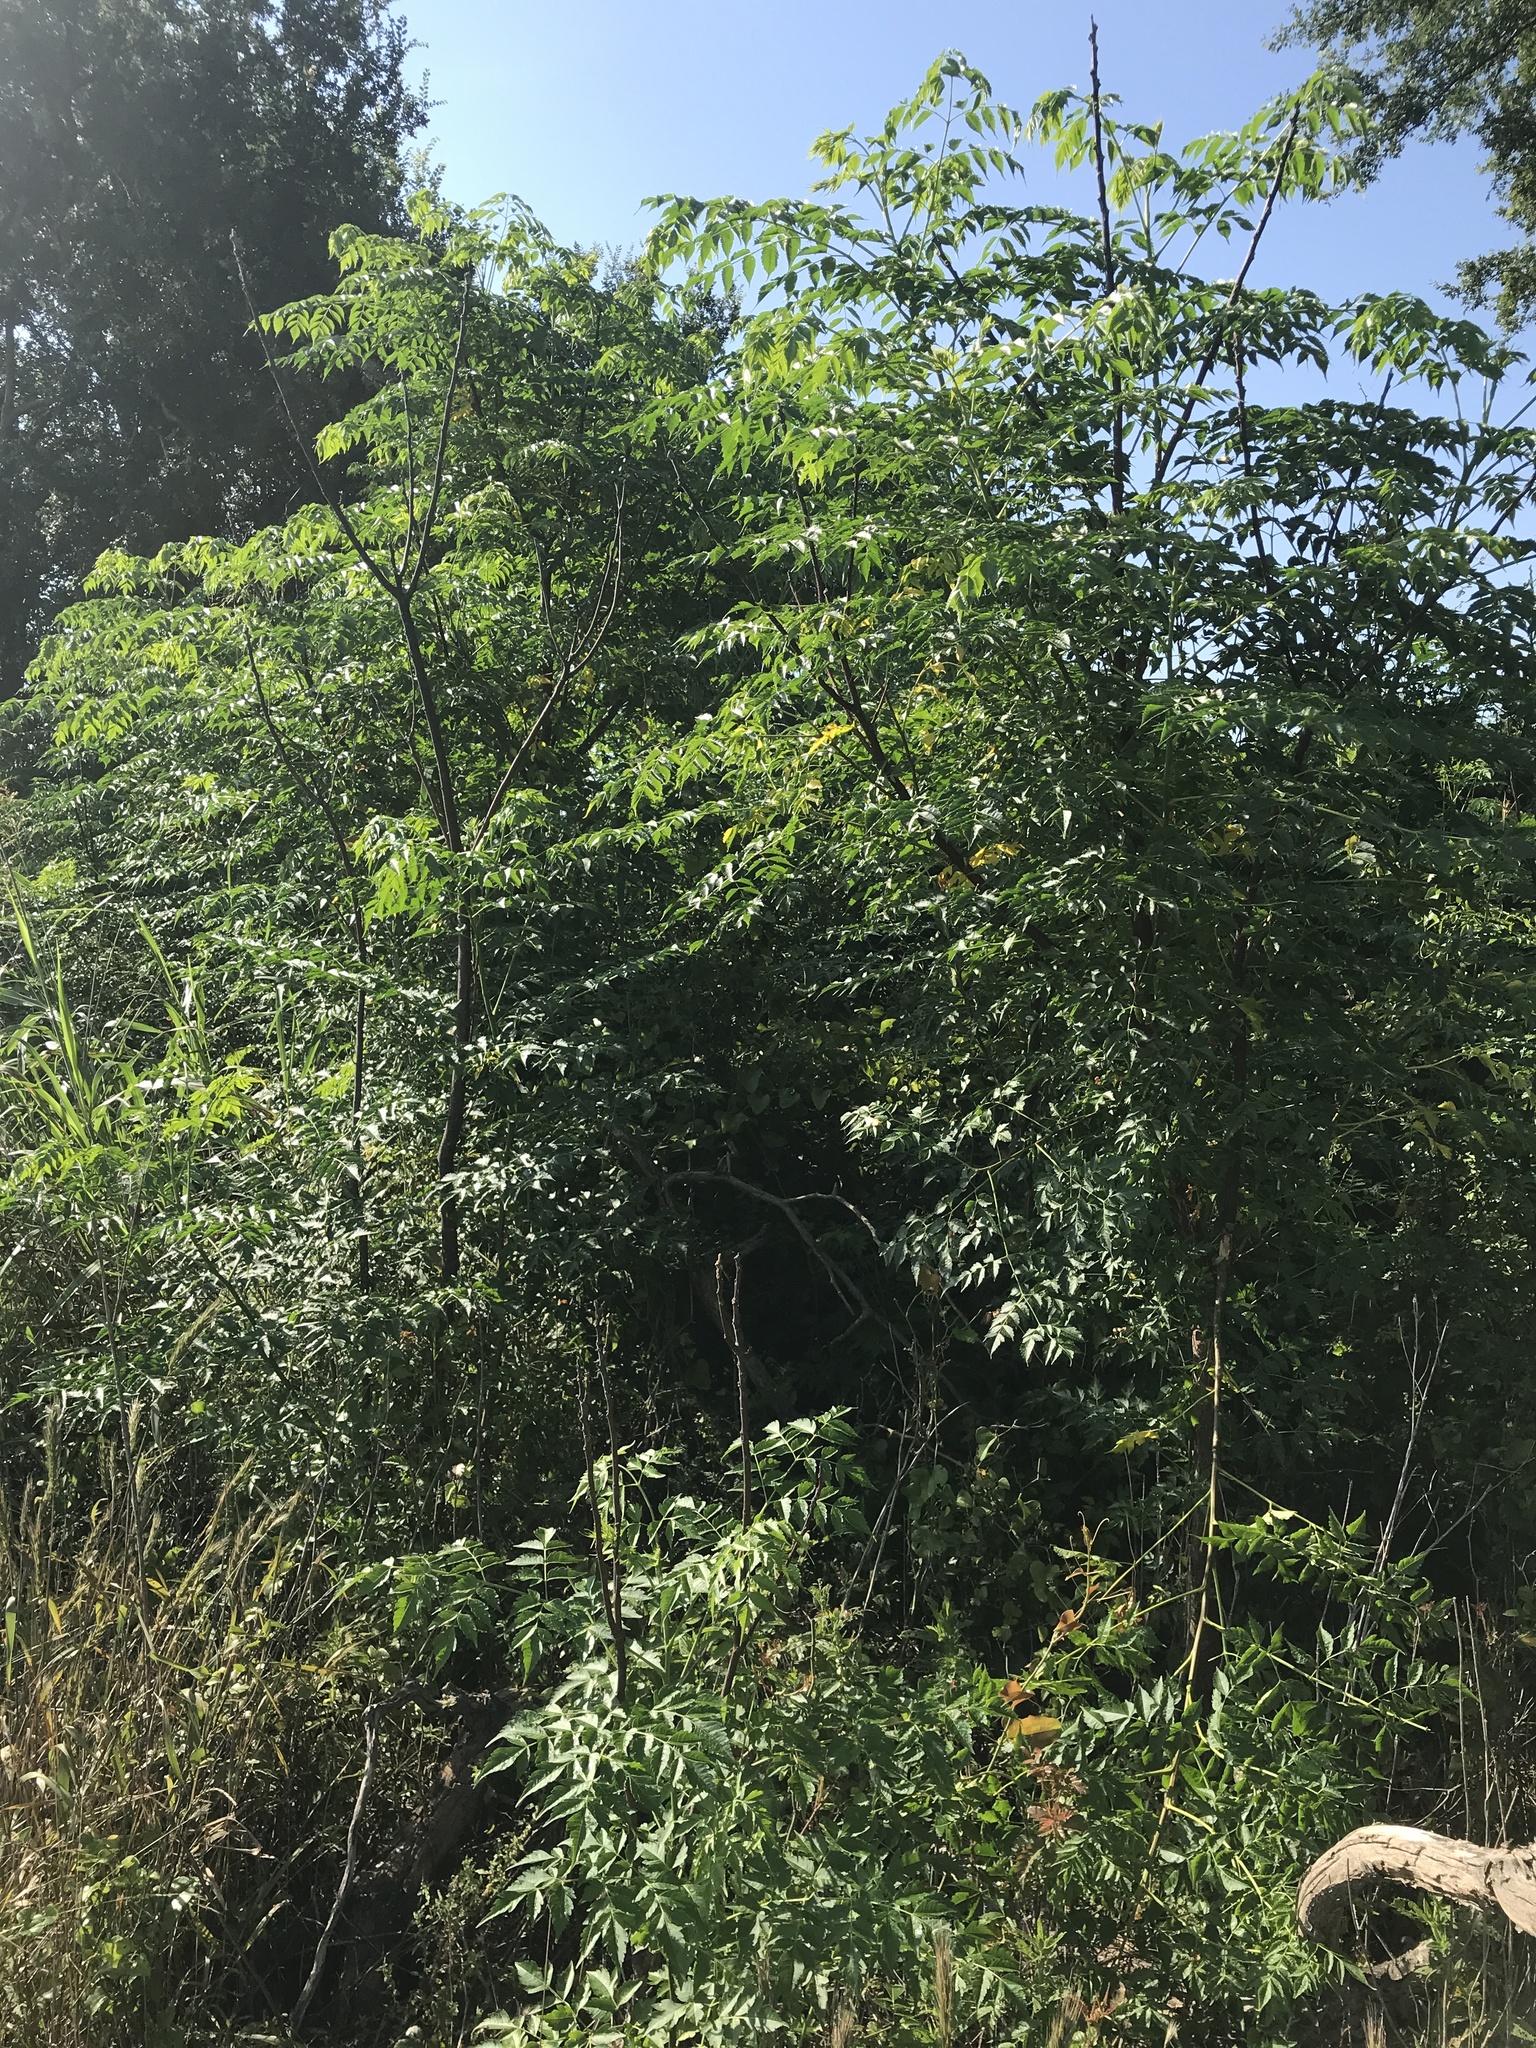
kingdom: Plantae
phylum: Tracheophyta
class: Magnoliopsida
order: Sapindales
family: Meliaceae
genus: Melia
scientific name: Melia azedarach
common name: Chinaberrytree
